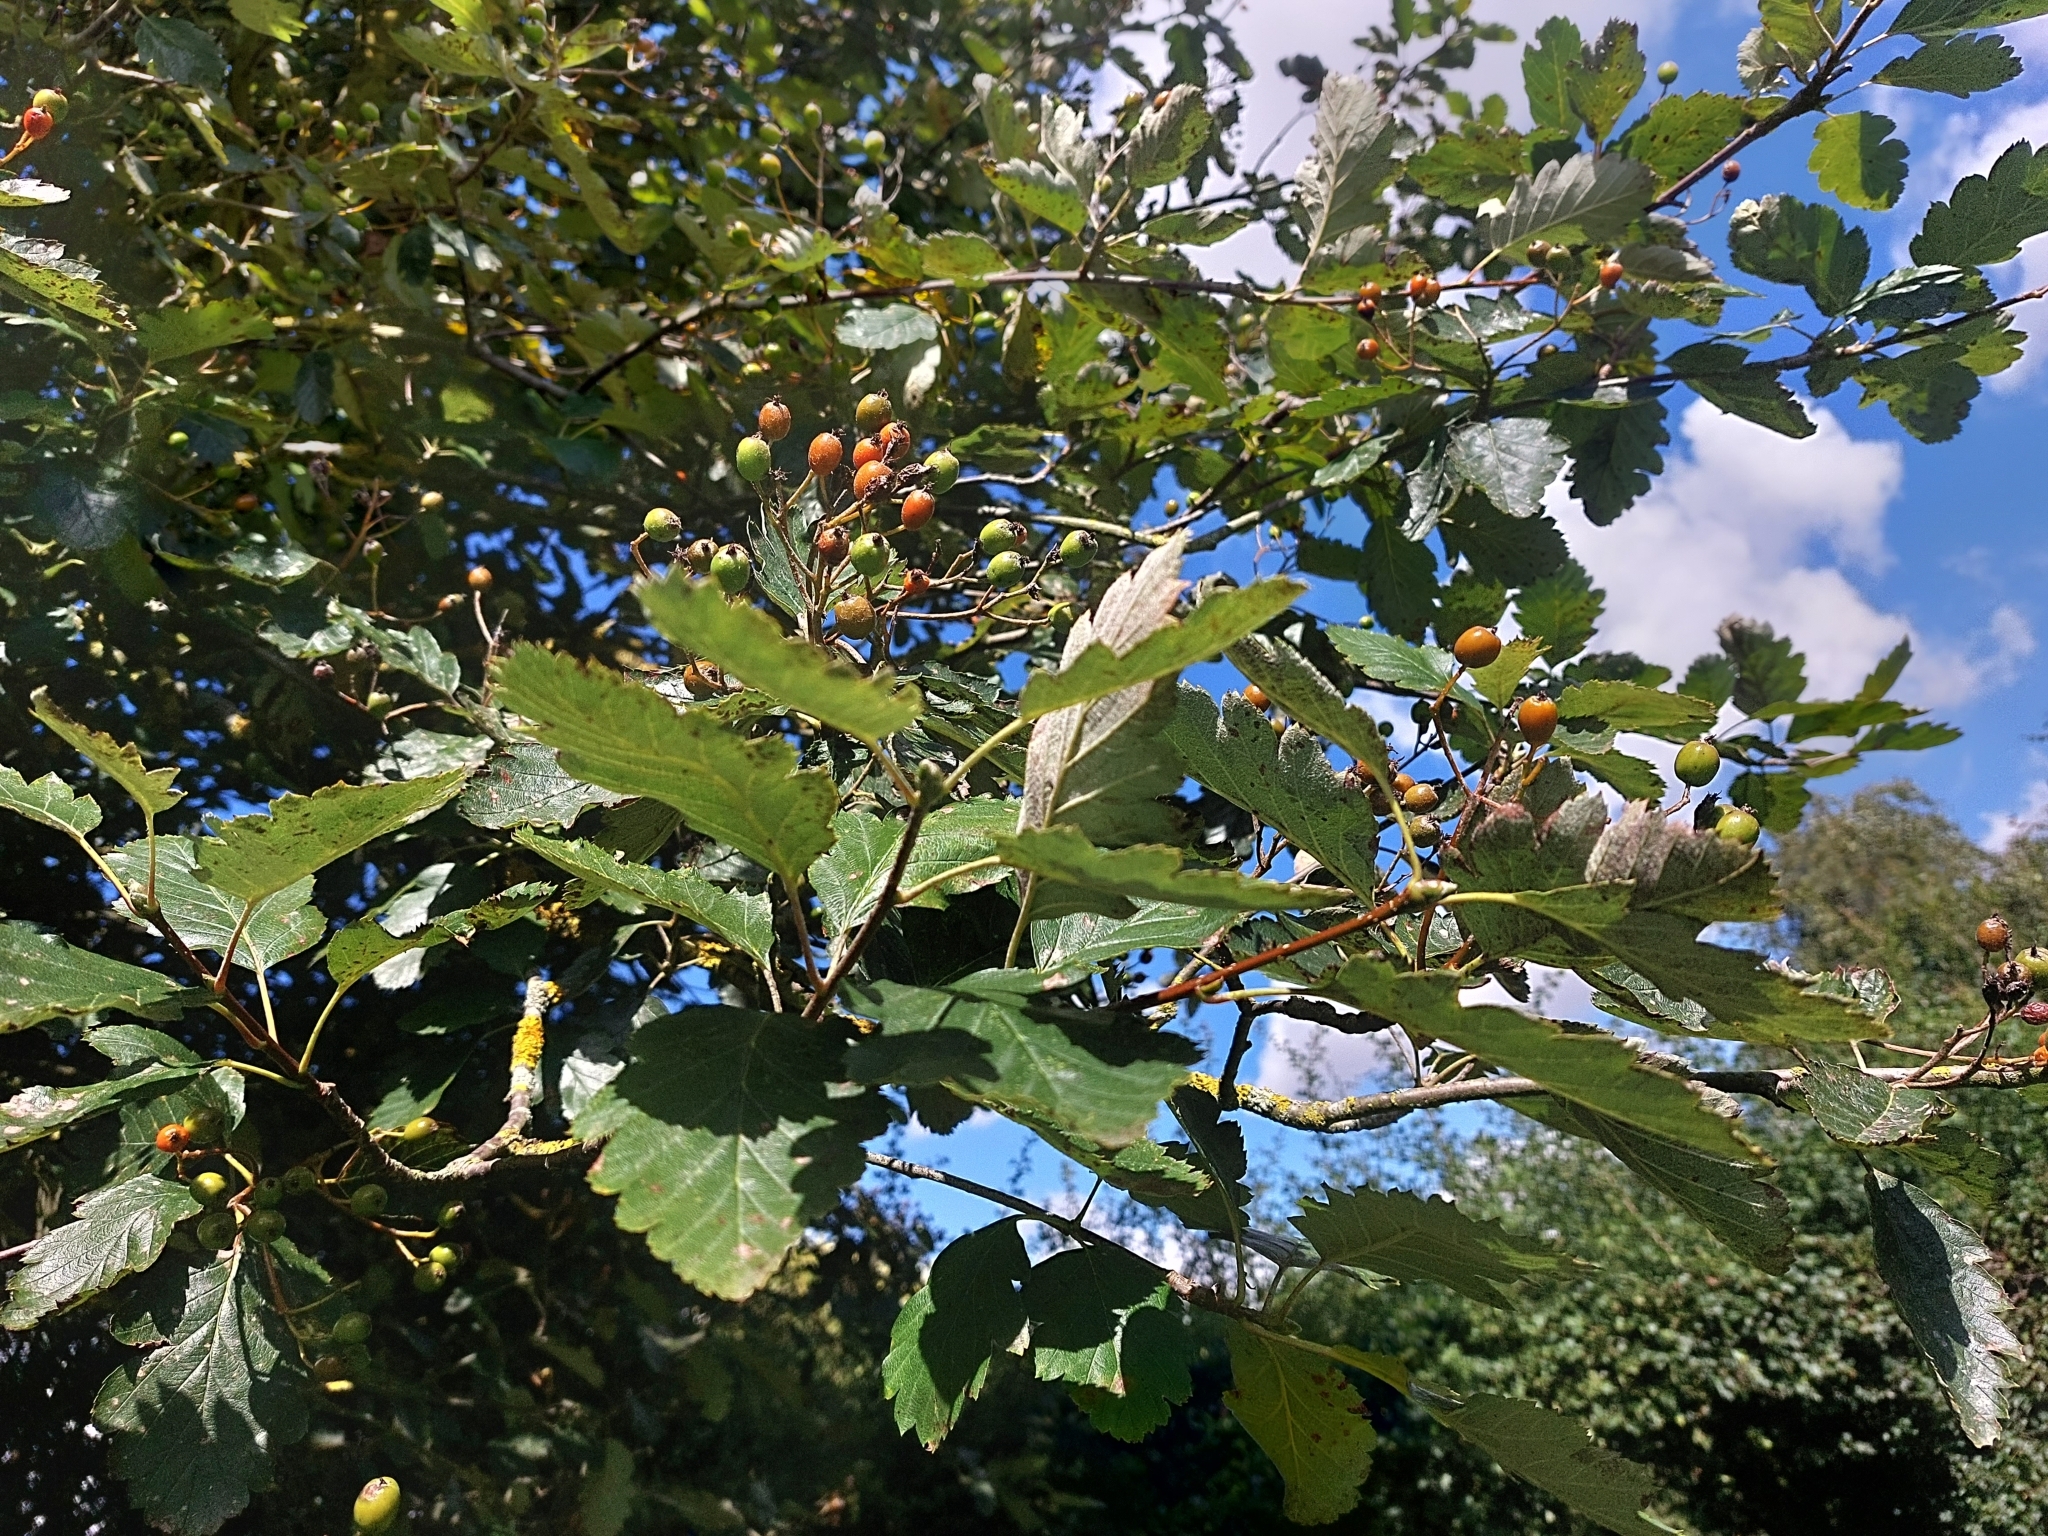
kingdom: Plantae
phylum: Tracheophyta
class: Magnoliopsida
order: Rosales
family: Rosaceae
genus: Scandosorbus
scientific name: Scandosorbus intermedia
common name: Swedish whitebeam
